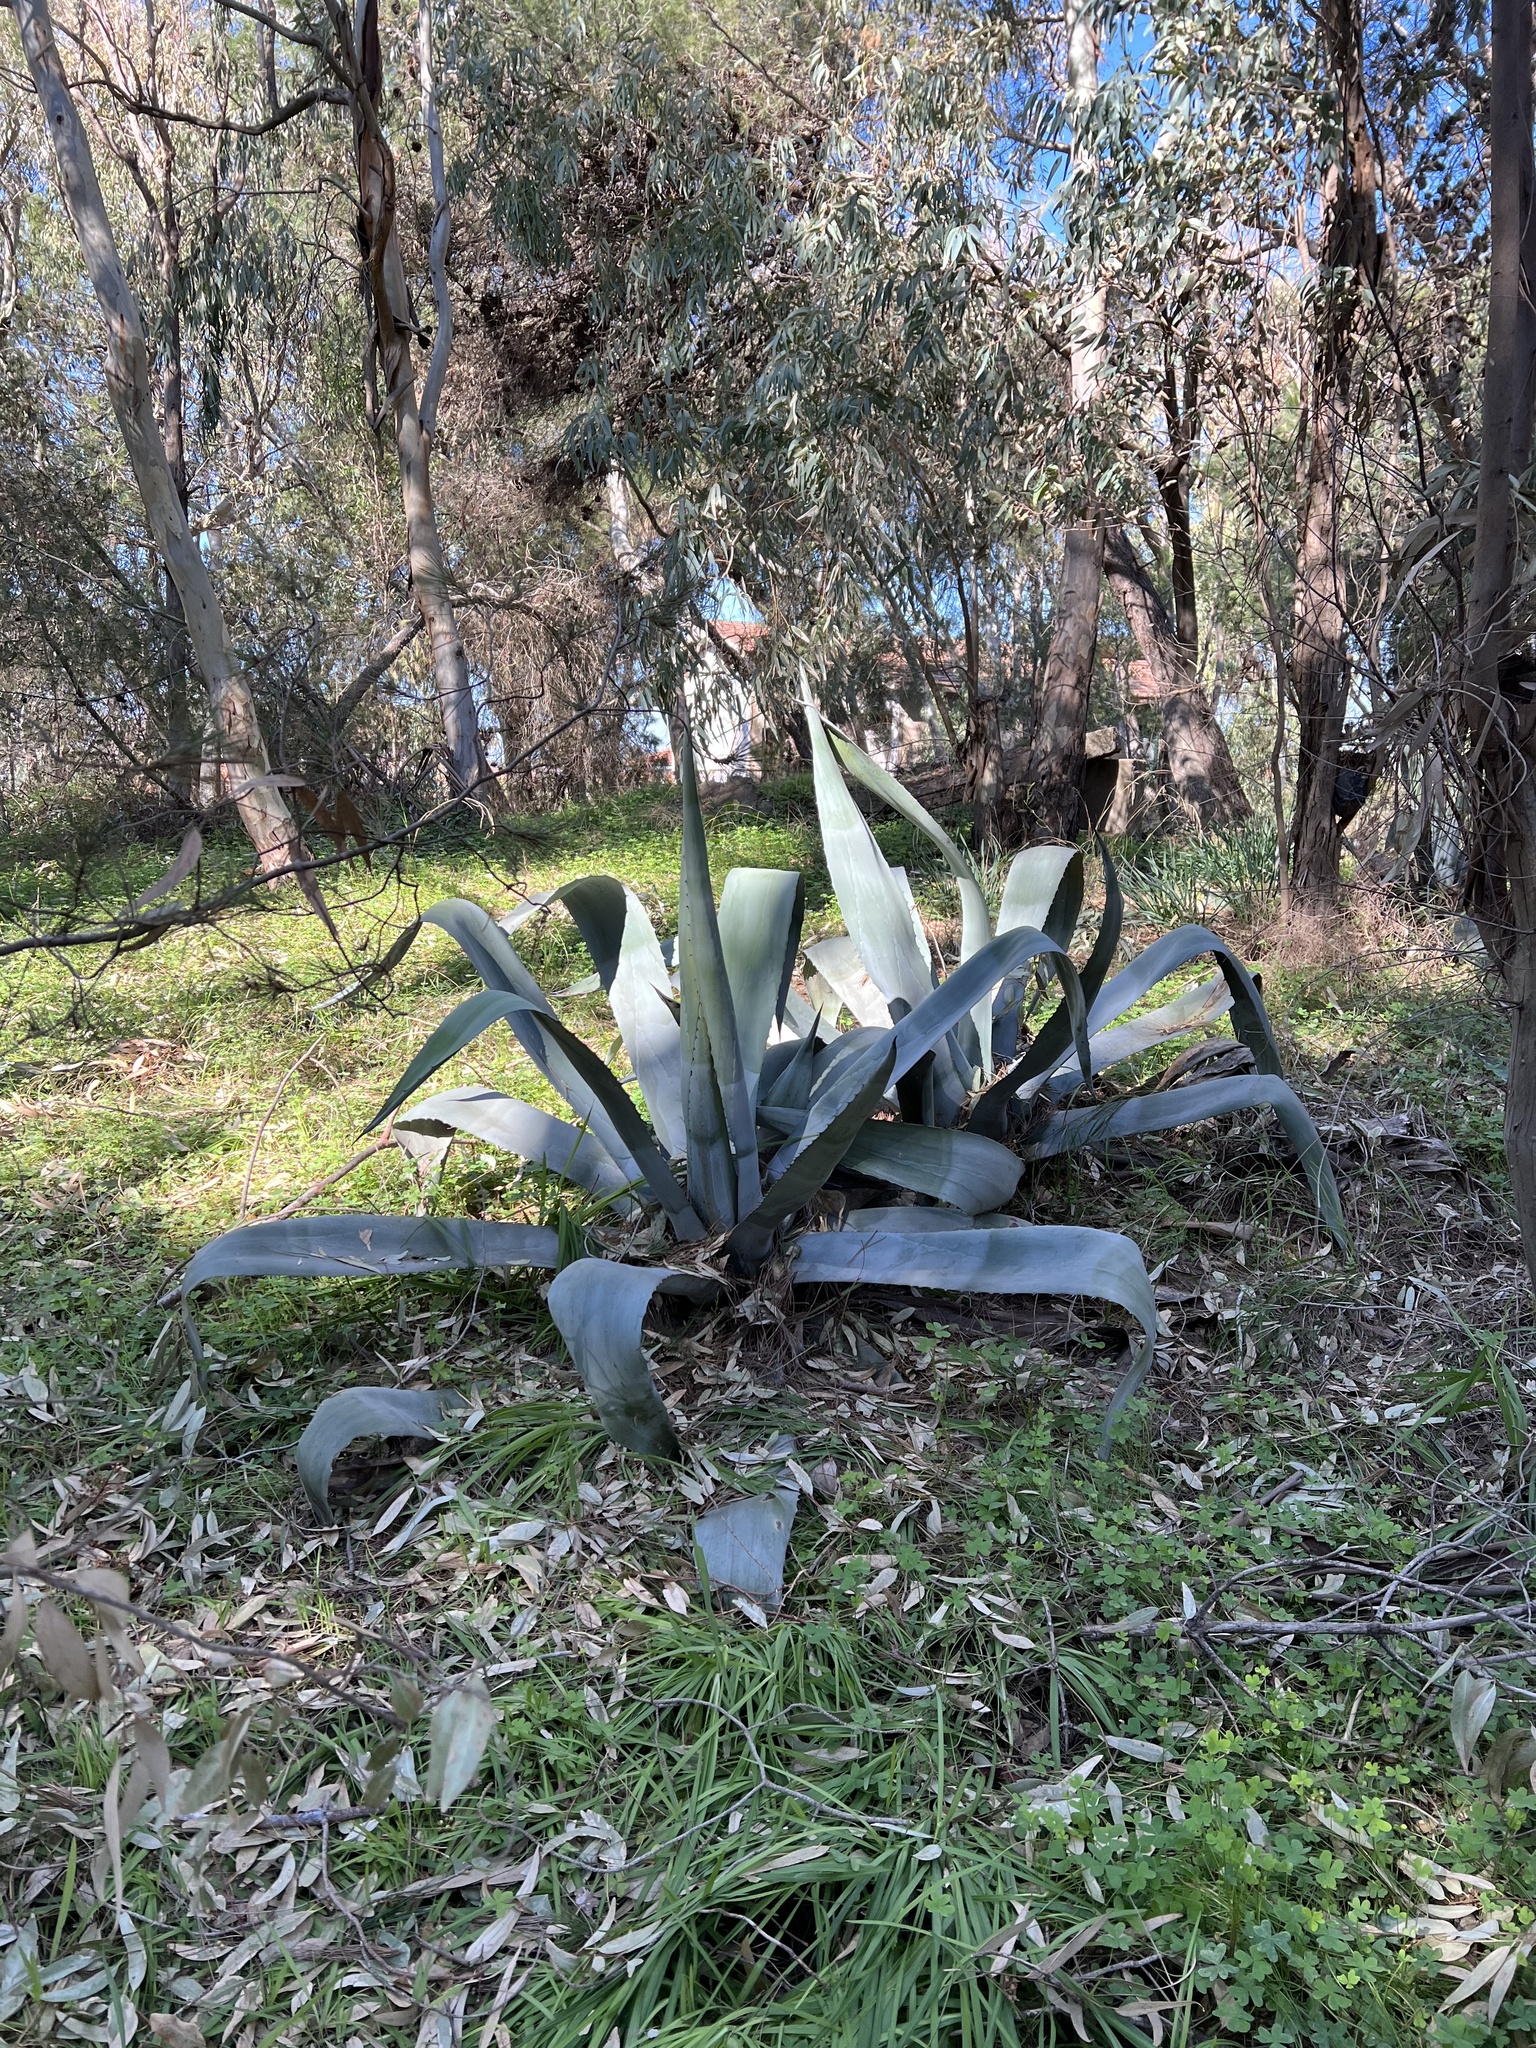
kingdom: Plantae
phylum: Tracheophyta
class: Liliopsida
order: Asparagales
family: Asparagaceae
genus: Agave
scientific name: Agave americana
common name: Centuryplant
